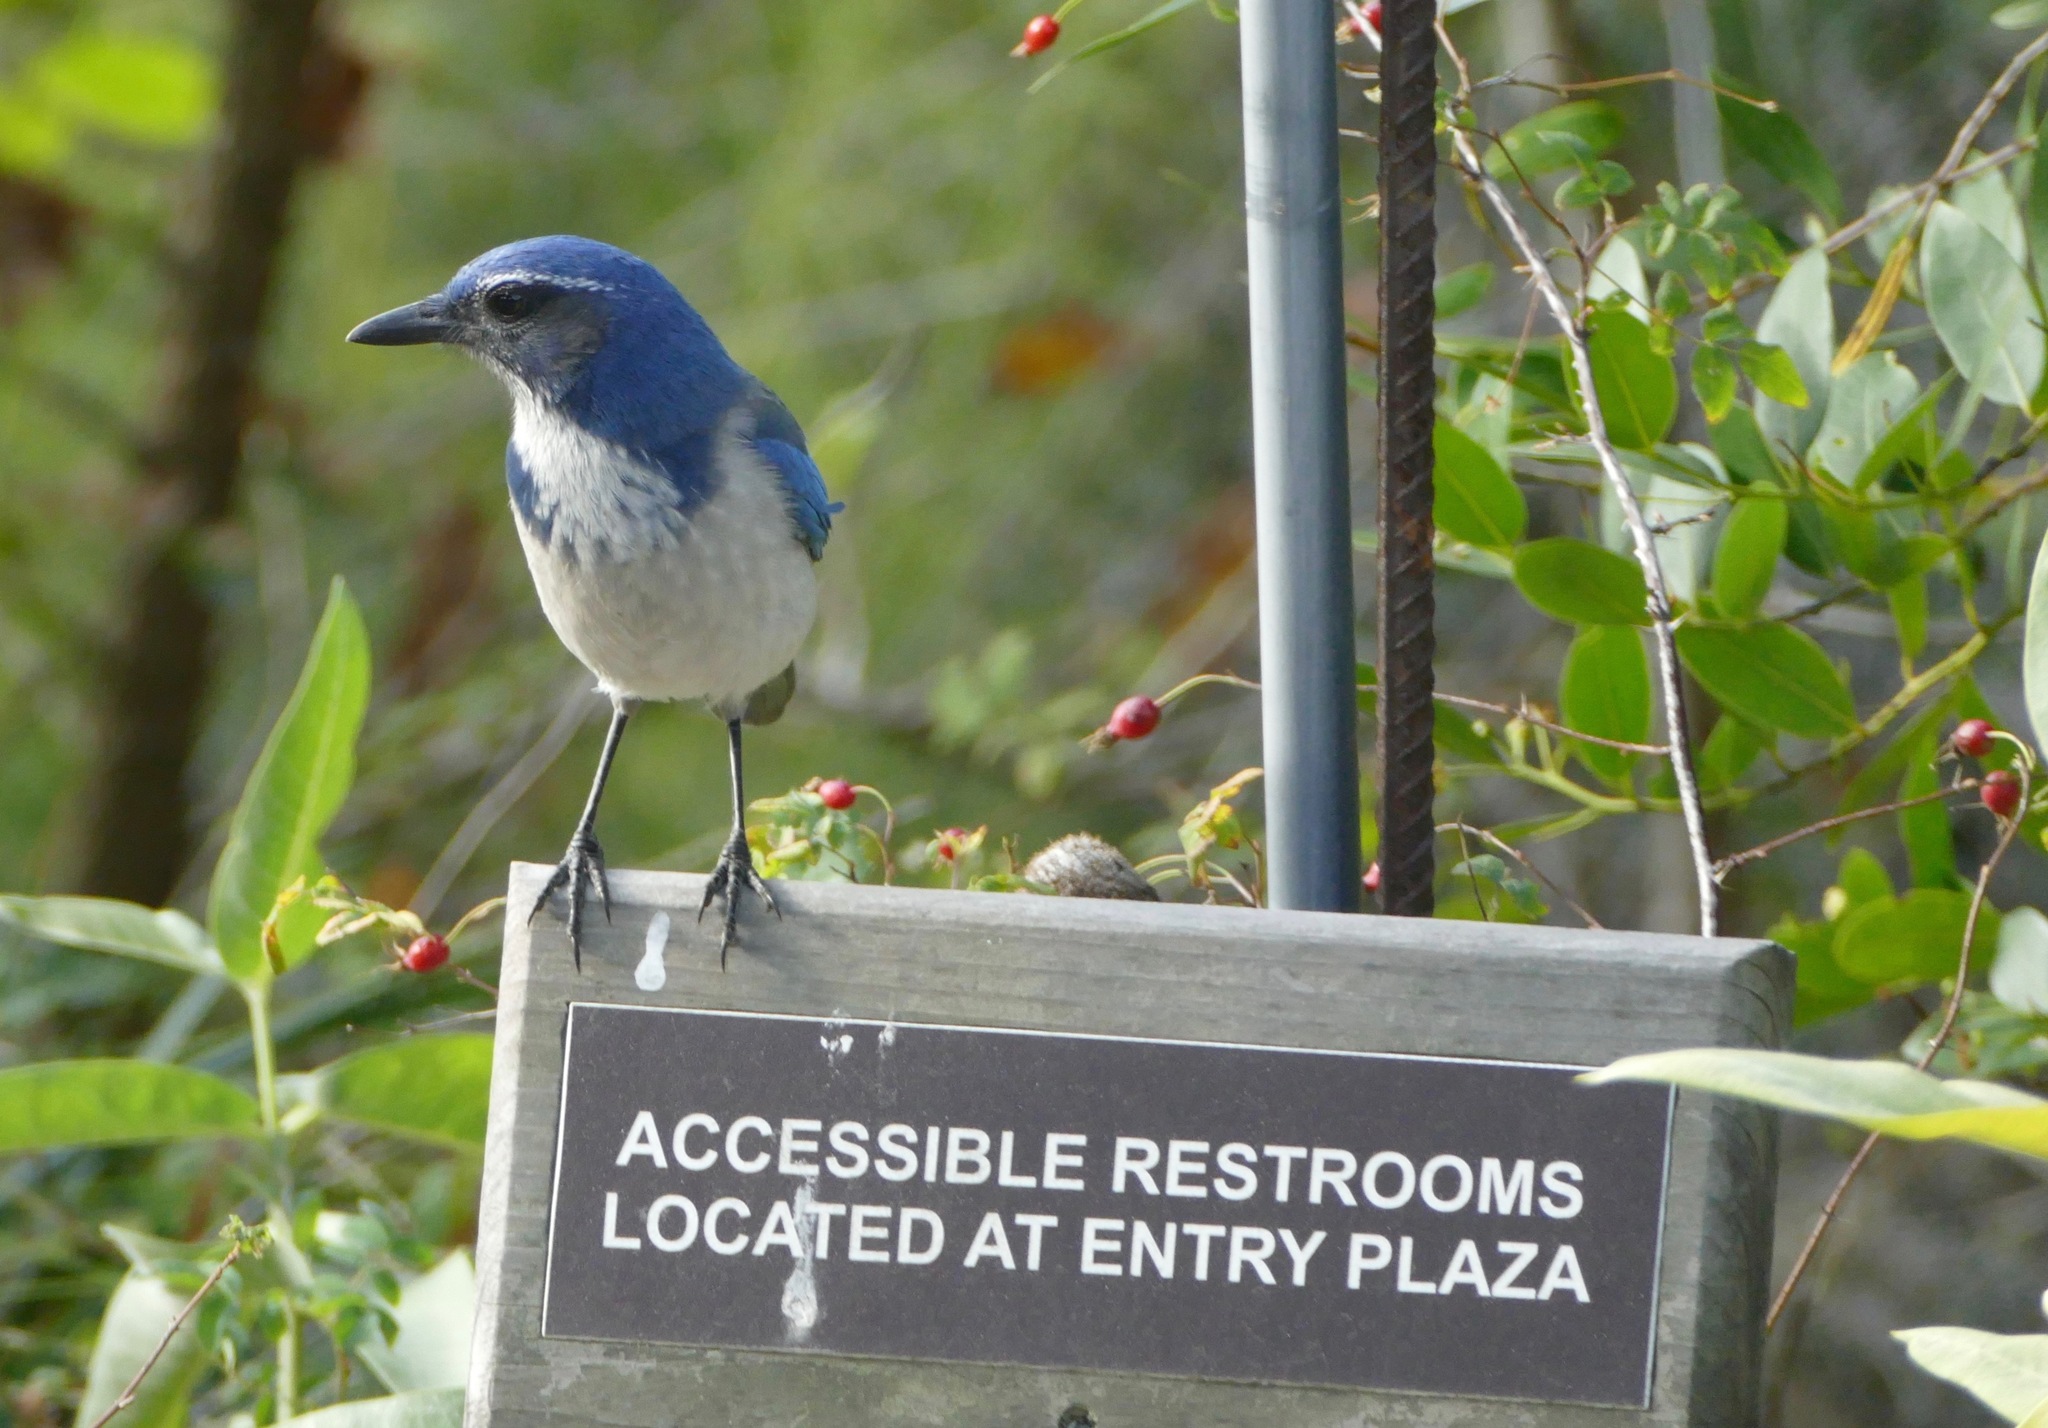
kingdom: Animalia
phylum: Chordata
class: Aves
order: Passeriformes
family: Corvidae
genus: Aphelocoma
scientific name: Aphelocoma californica
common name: California scrub-jay
